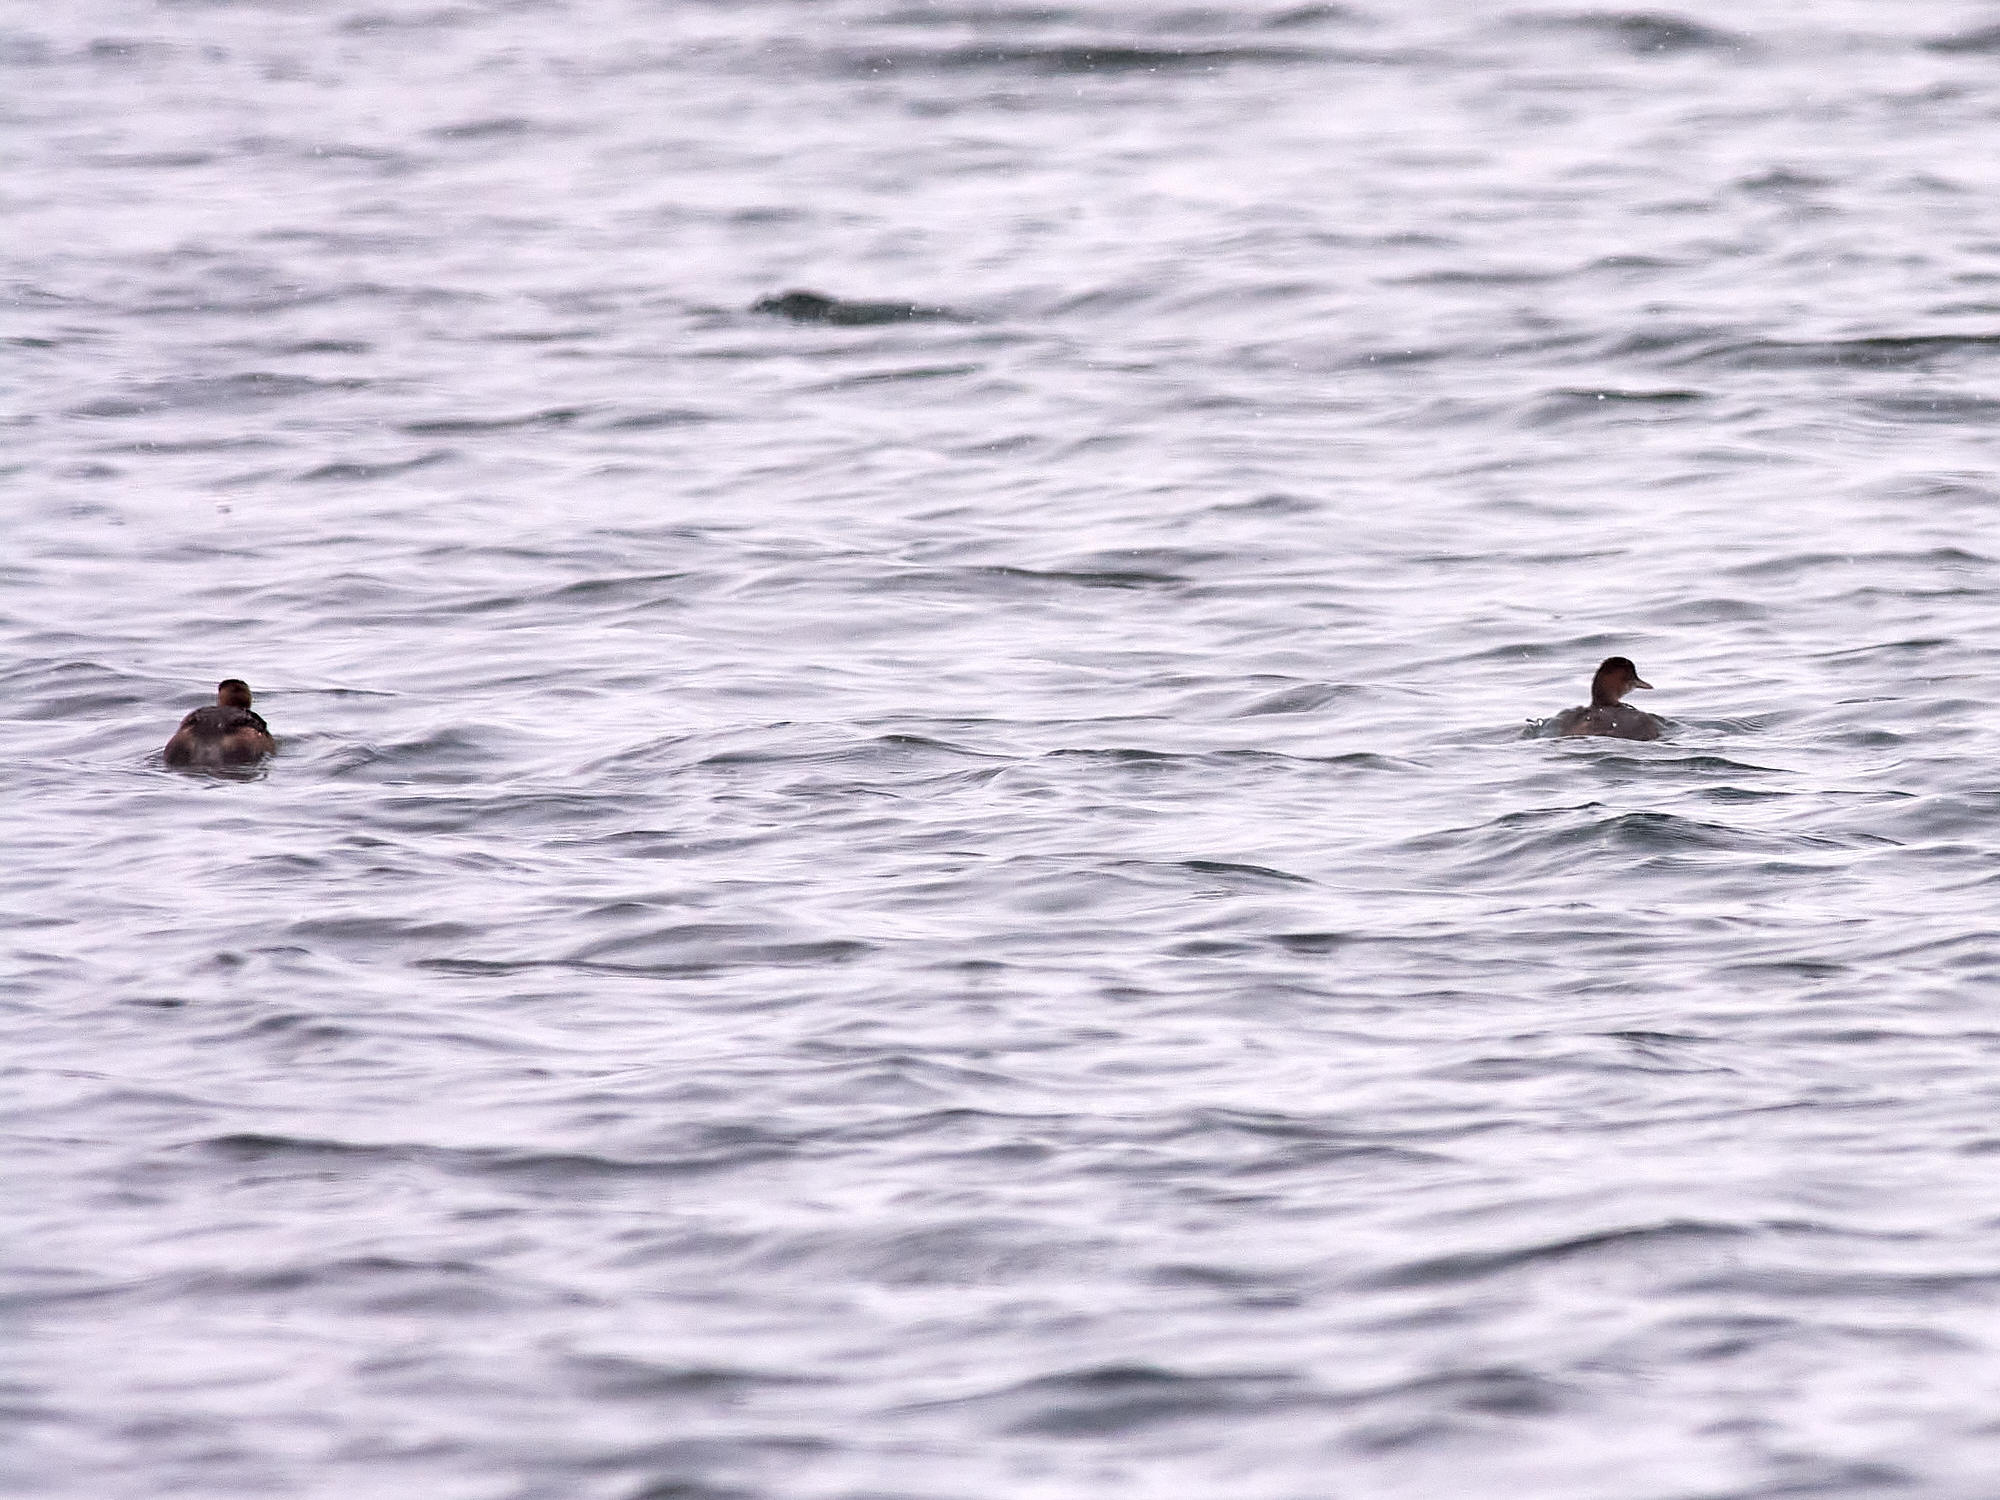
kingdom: Animalia
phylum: Chordata
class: Aves
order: Podicipediformes
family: Podicipedidae
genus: Tachybaptus
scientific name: Tachybaptus ruficollis
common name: Little grebe
